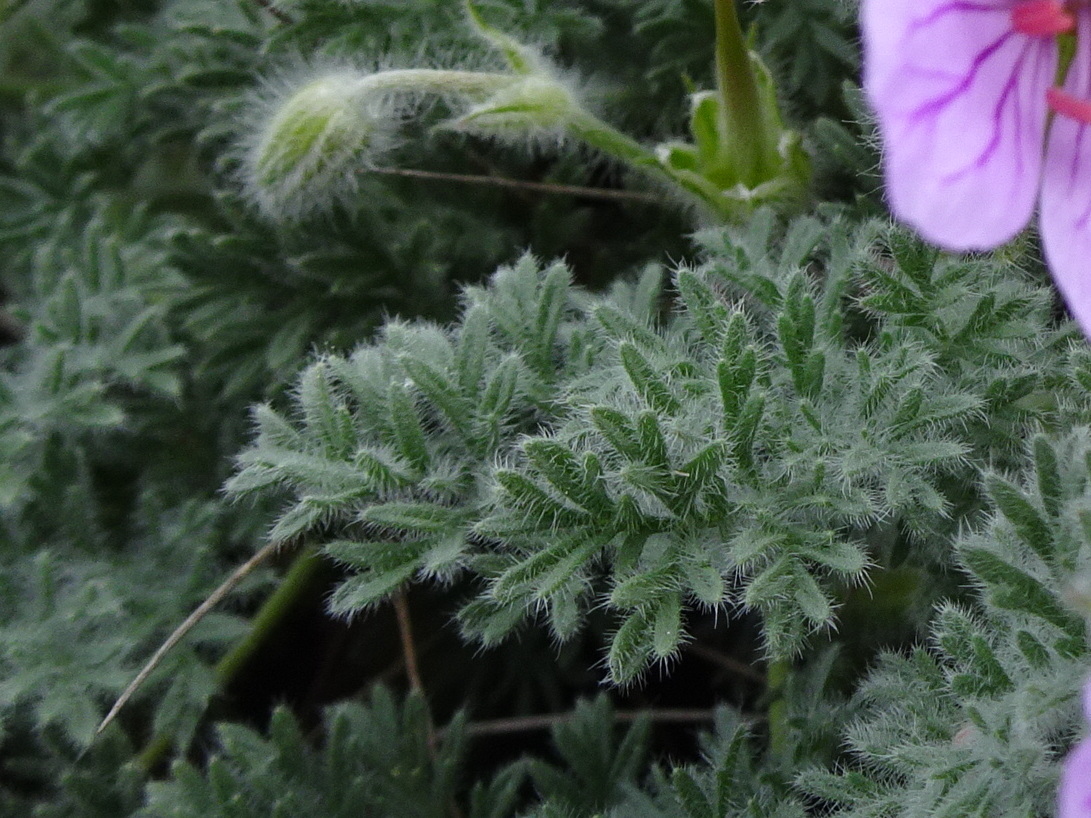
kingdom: Plantae
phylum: Tracheophyta
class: Magnoliopsida
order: Geraniales
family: Geraniaceae
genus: Erodium
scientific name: Erodium foetidum
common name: Rock stork's-bill
